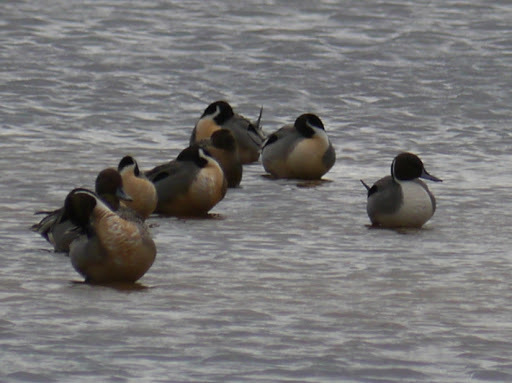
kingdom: Animalia
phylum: Chordata
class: Aves
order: Anseriformes
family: Anatidae
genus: Anas
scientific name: Anas acuta
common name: Northern pintail
